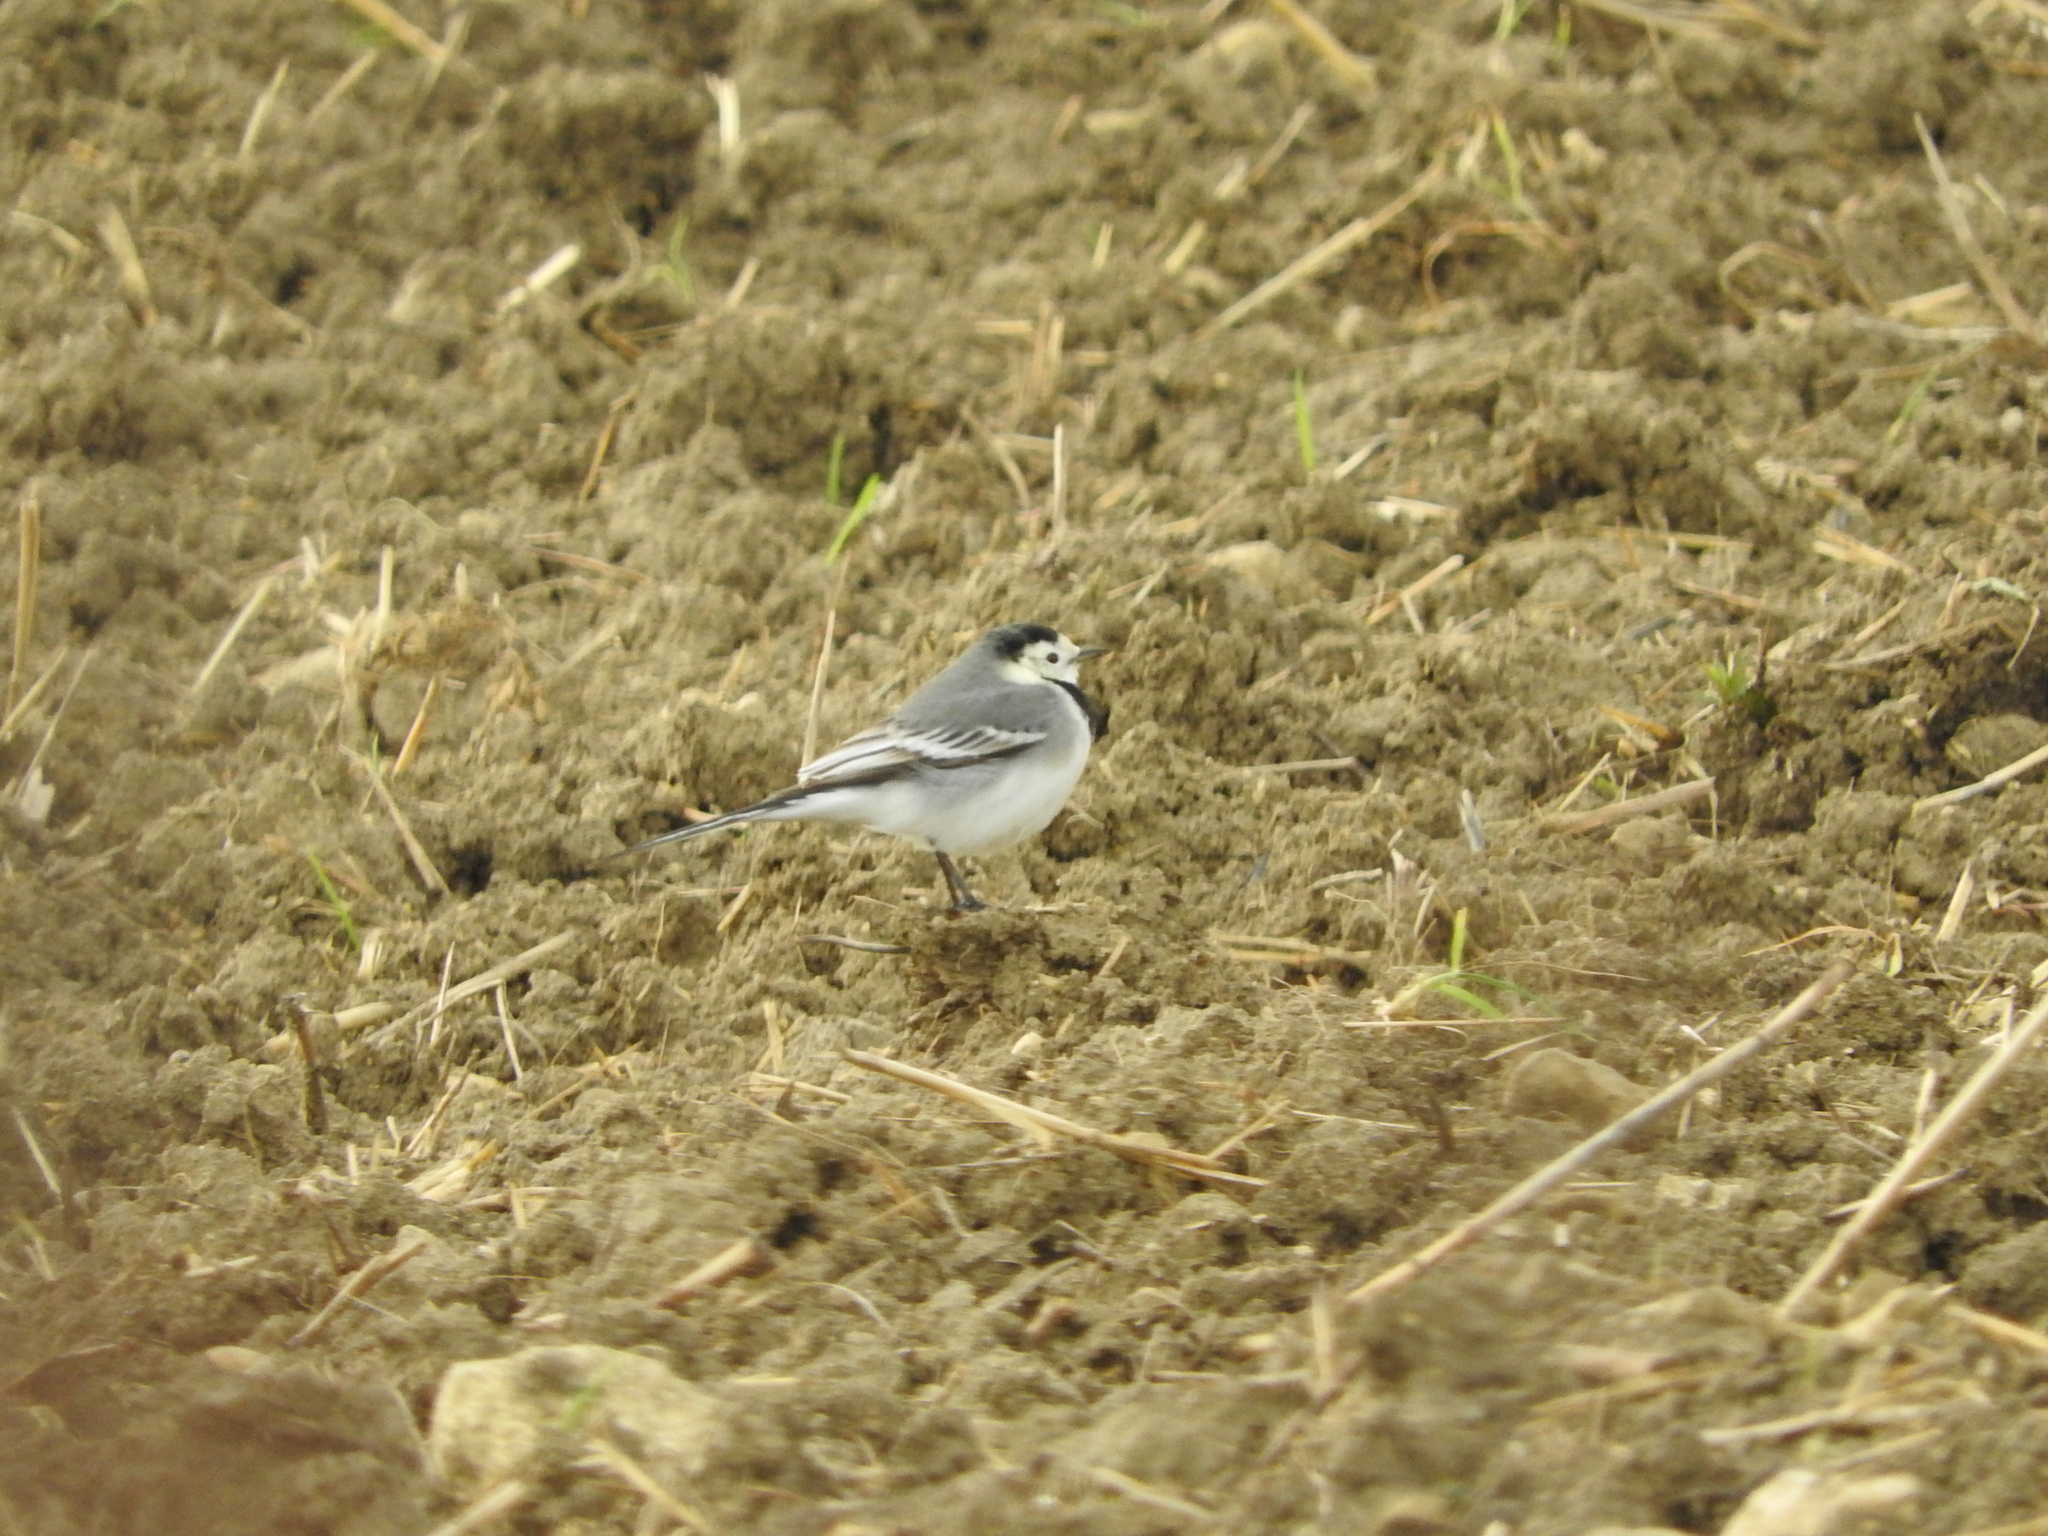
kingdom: Animalia
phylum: Chordata
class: Aves
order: Passeriformes
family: Motacillidae
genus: Motacilla
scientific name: Motacilla alba
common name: White wagtail
